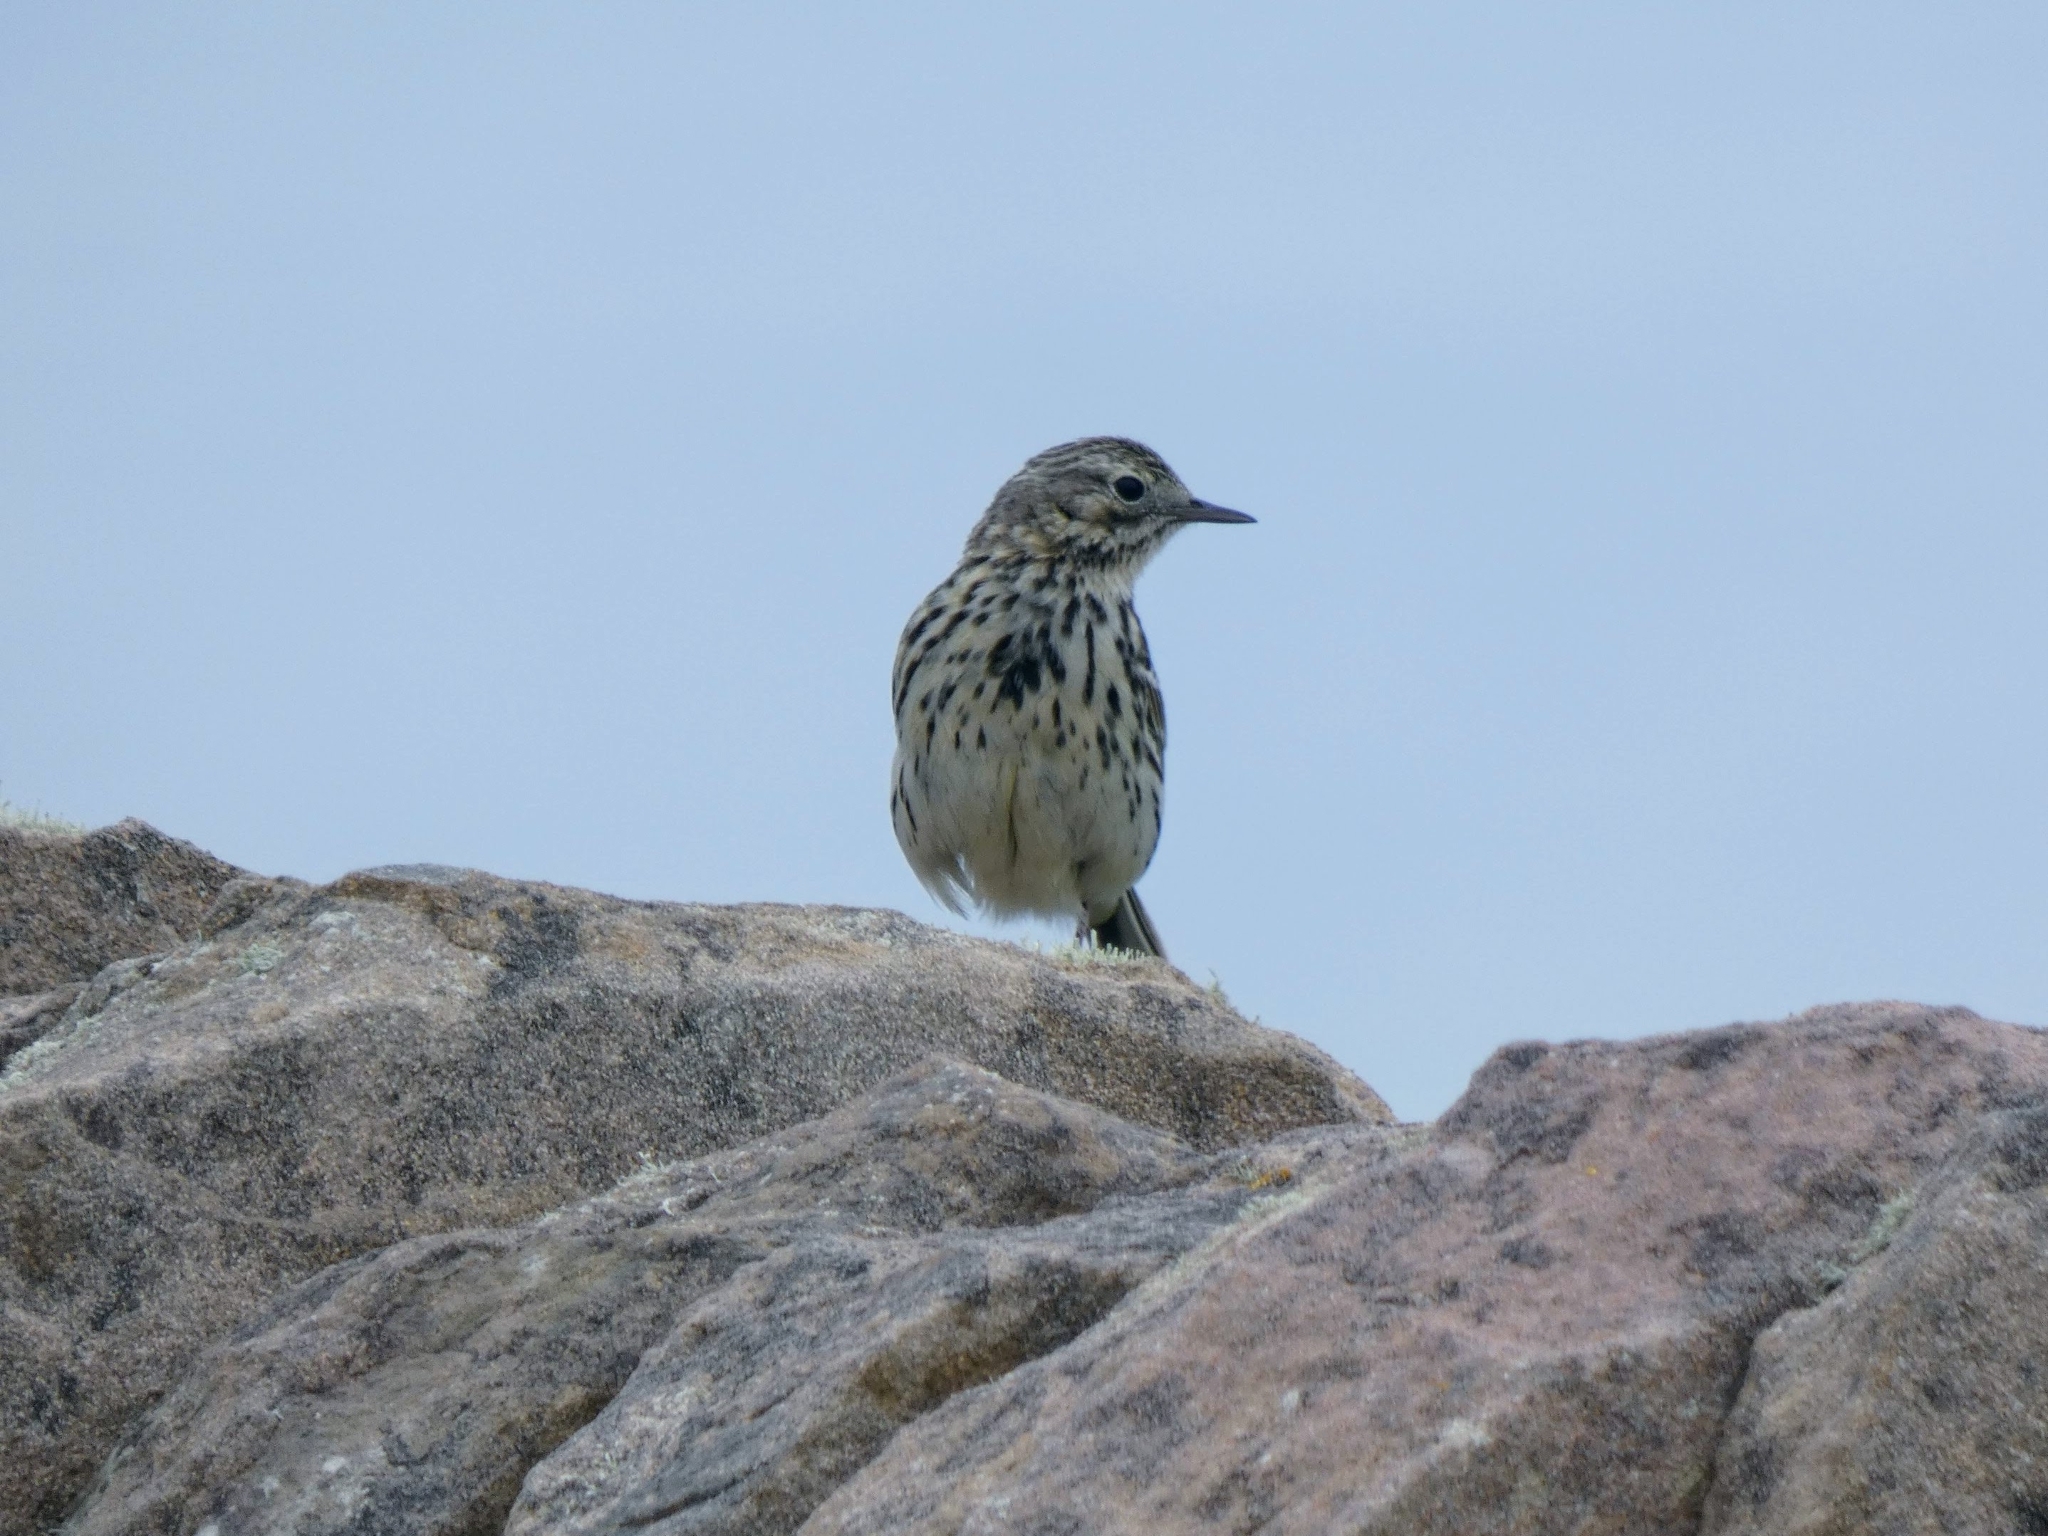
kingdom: Animalia
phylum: Chordata
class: Aves
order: Passeriformes
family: Motacillidae
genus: Anthus
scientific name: Anthus pratensis
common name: Meadow pipit
